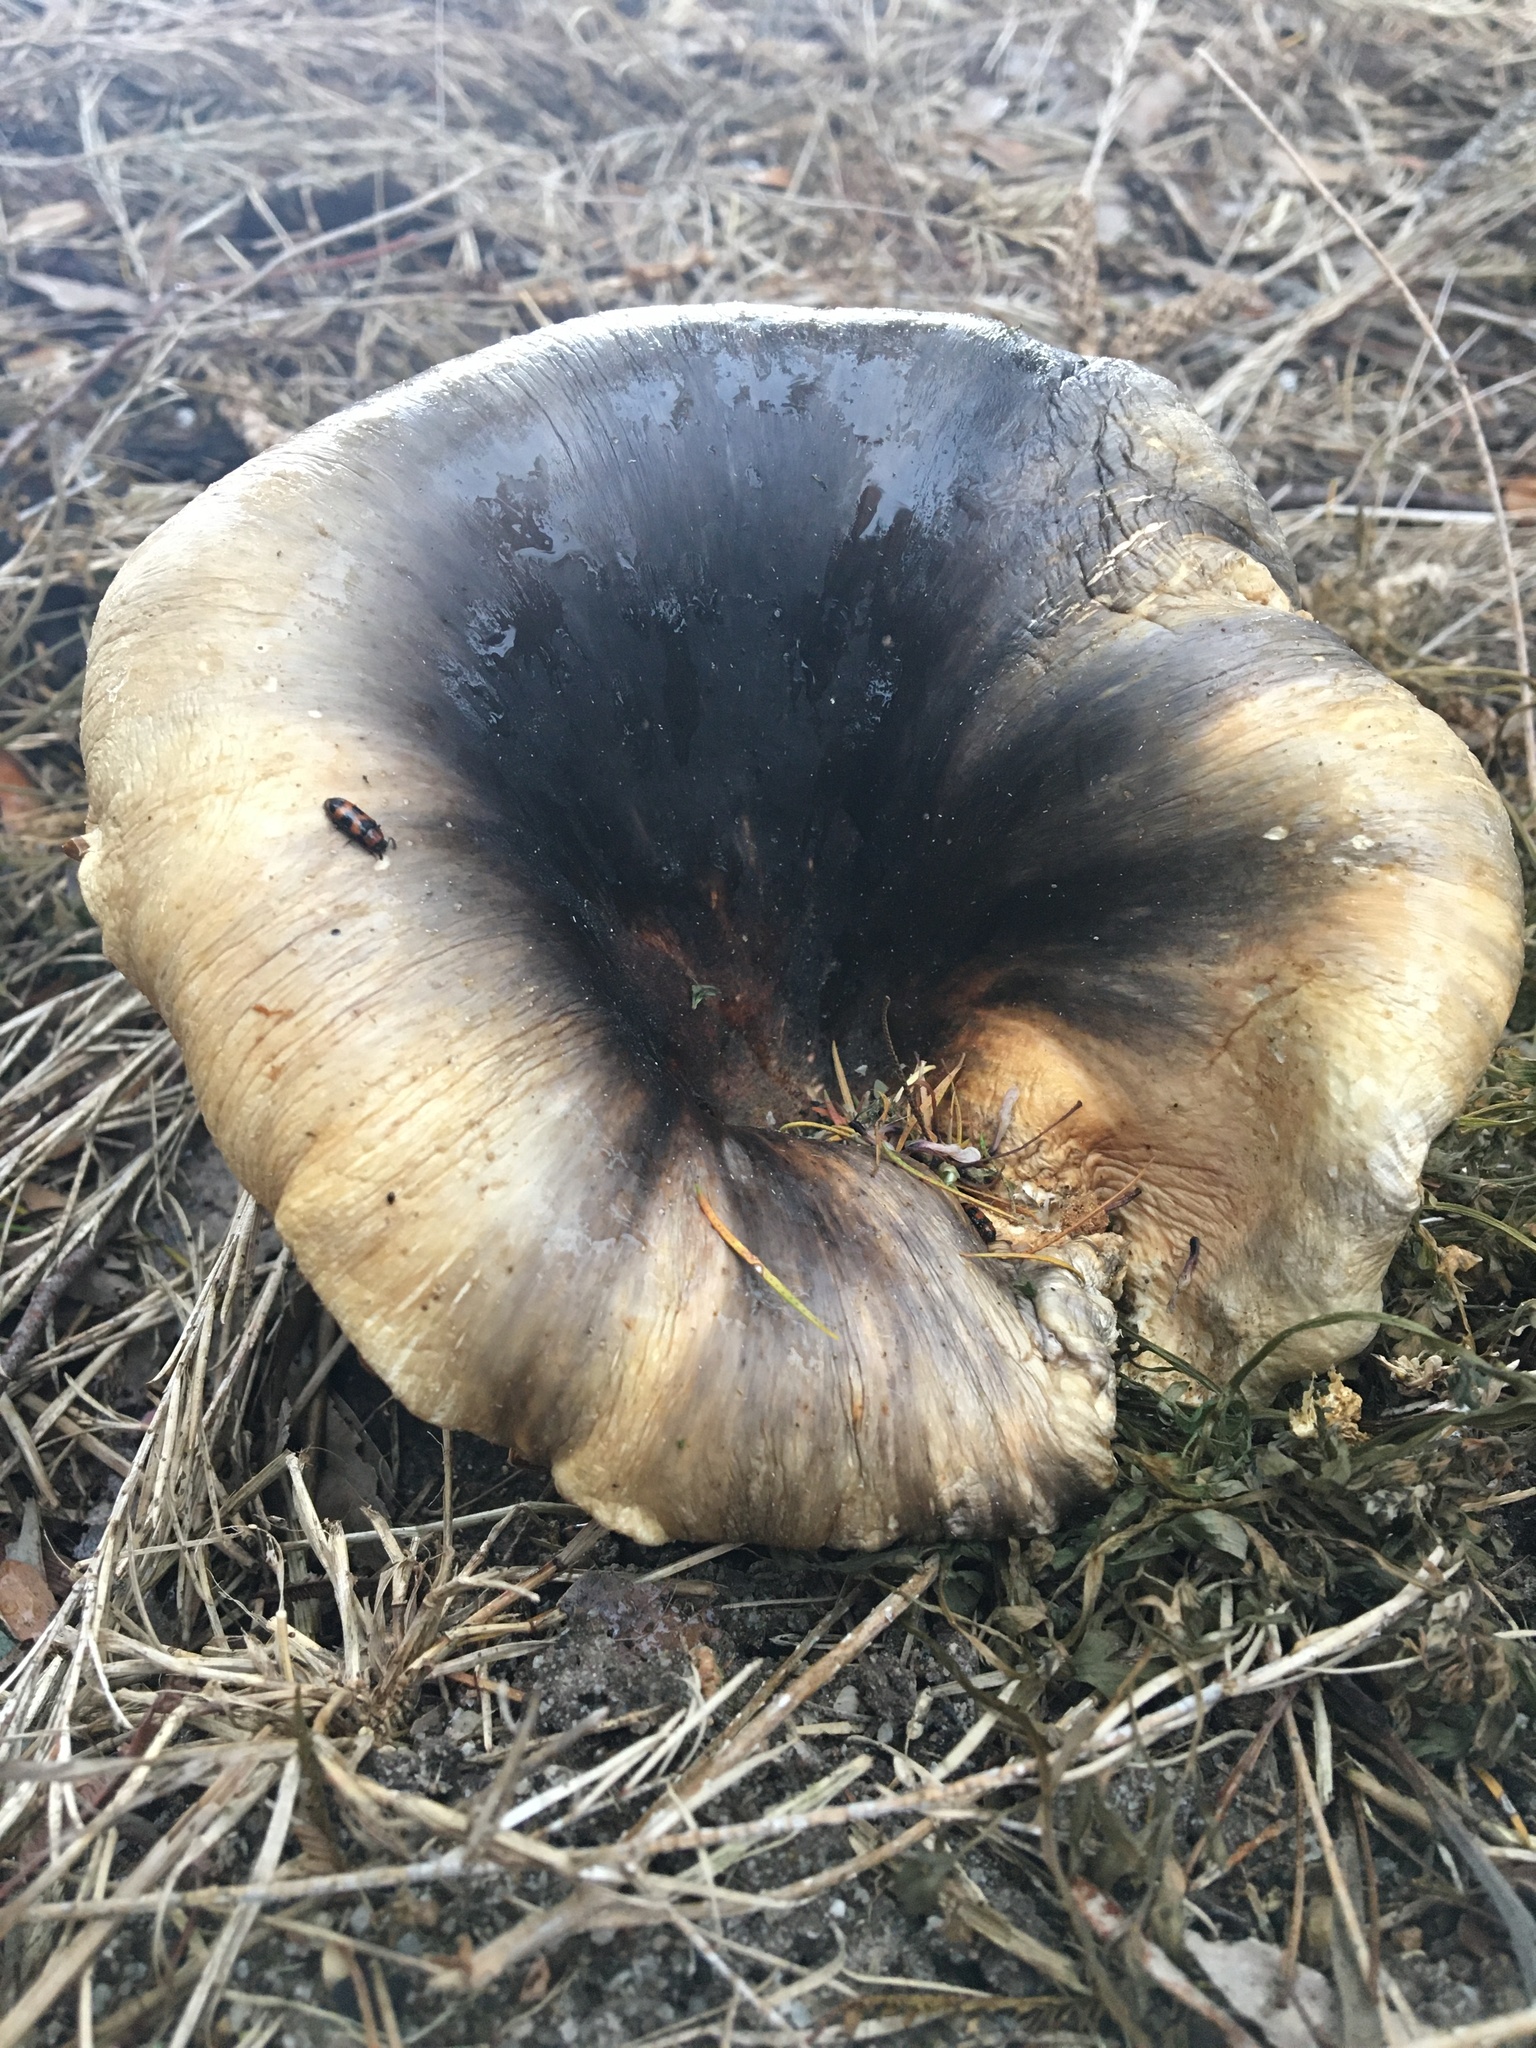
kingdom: Fungi
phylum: Basidiomycota
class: Agaricomycetes
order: Agaricales
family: Omphalotaceae
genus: Omphalotus
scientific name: Omphalotus nidiformis
